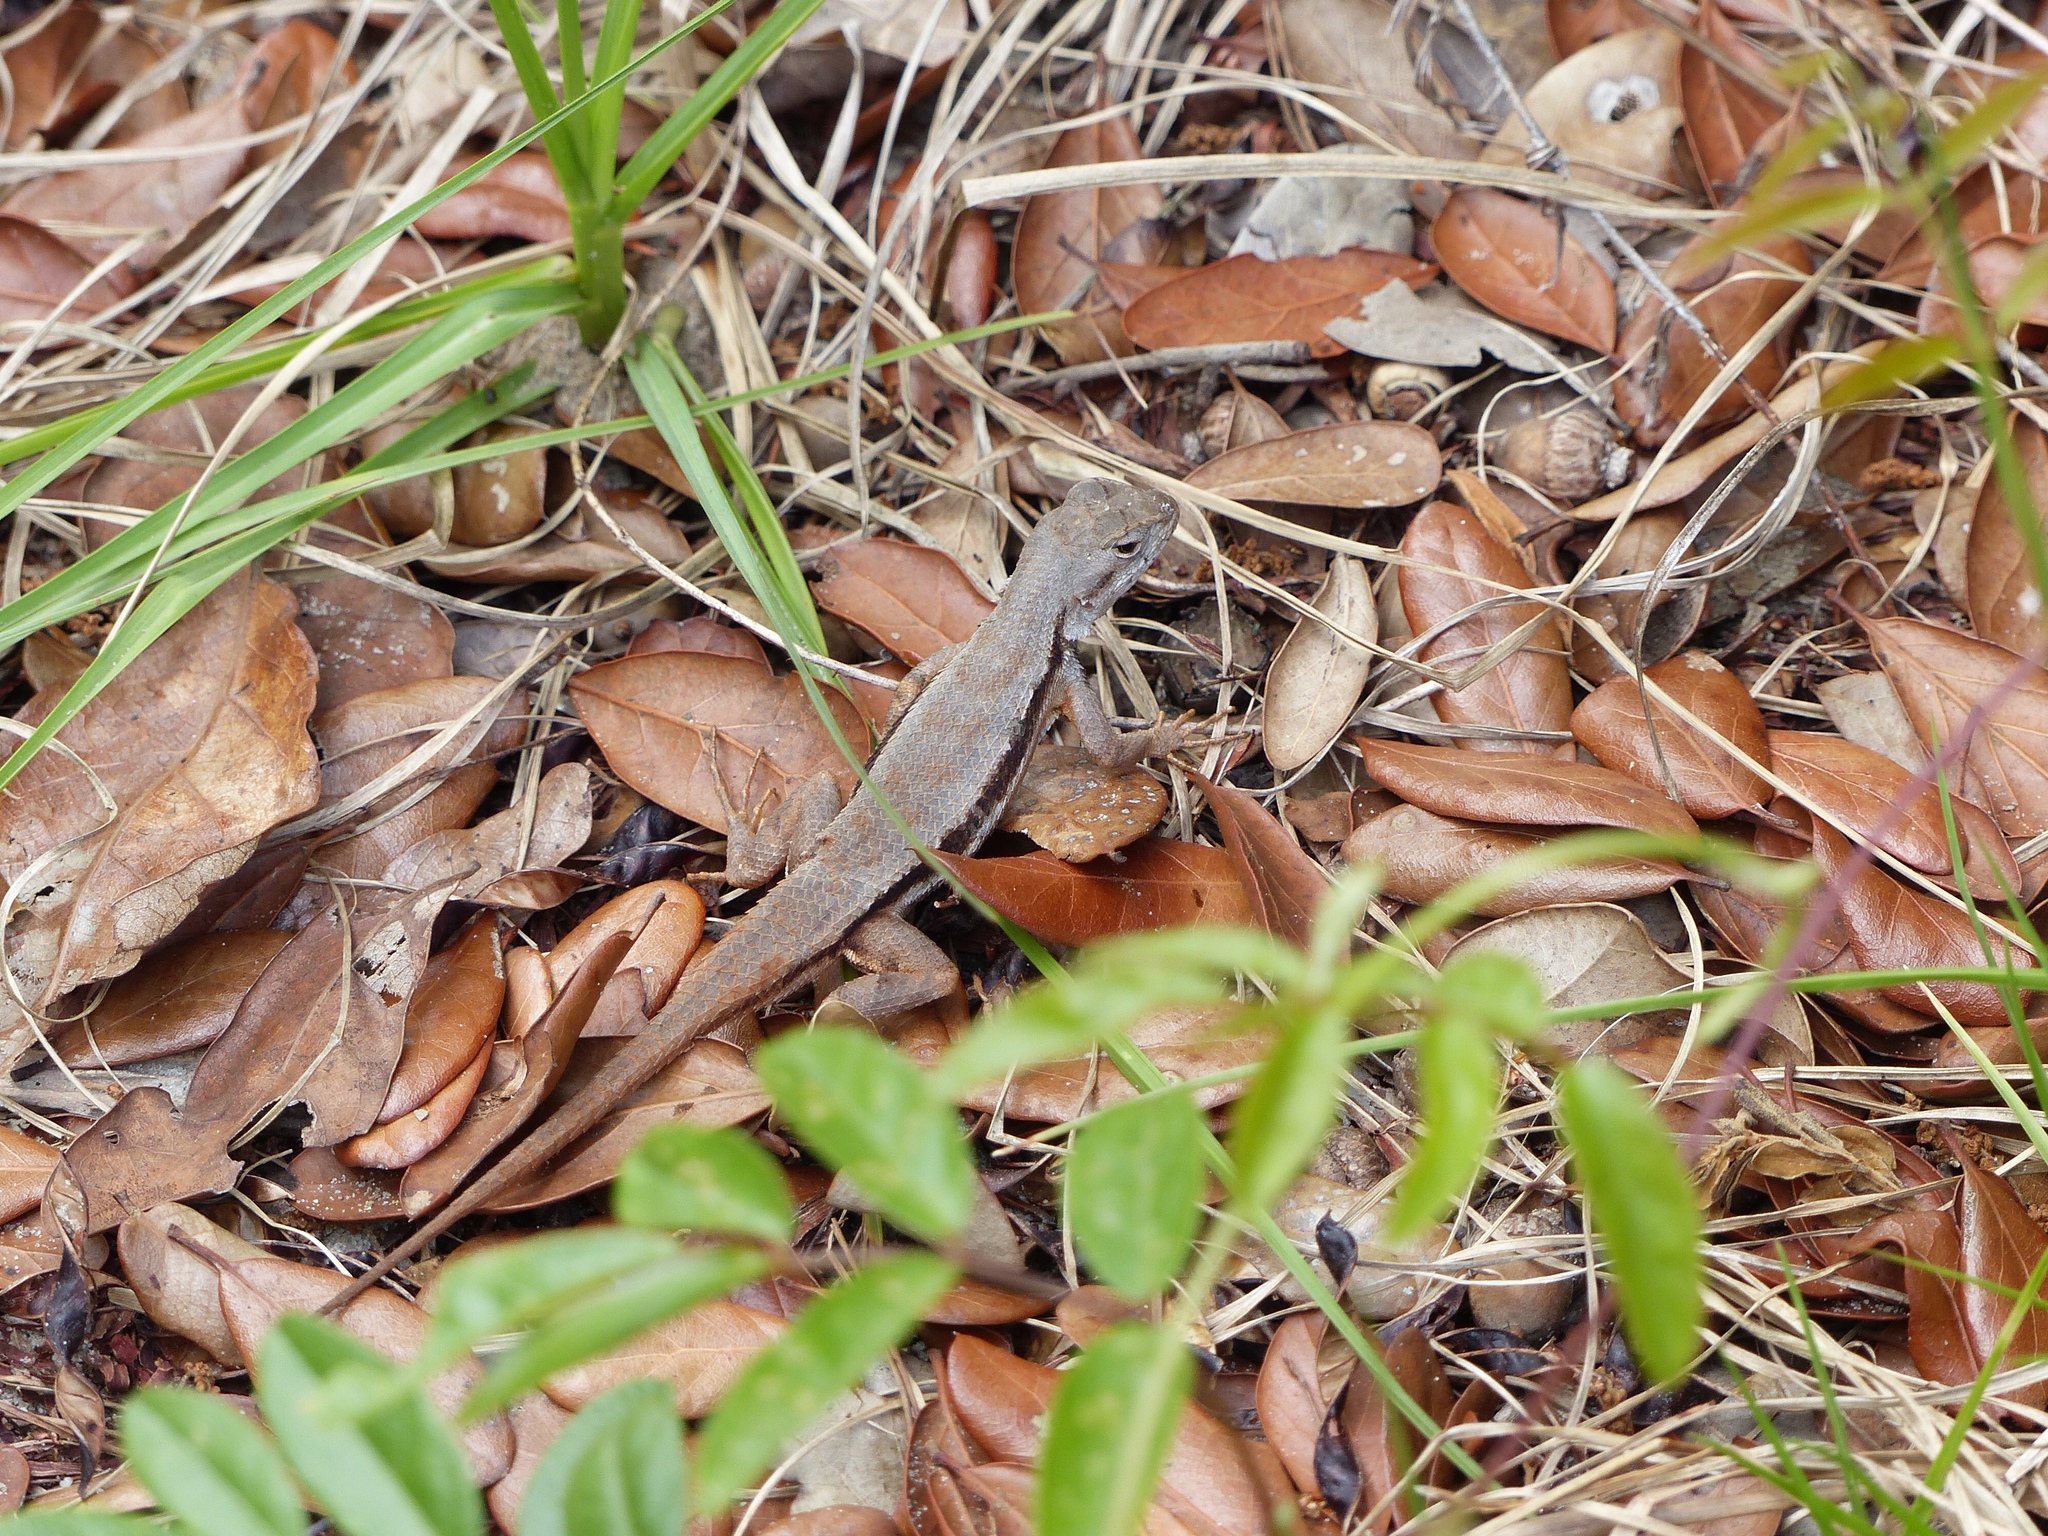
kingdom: Animalia
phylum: Chordata
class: Squamata
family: Phrynosomatidae
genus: Sceloporus
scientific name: Sceloporus woodi
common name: Florida scrub lizard
